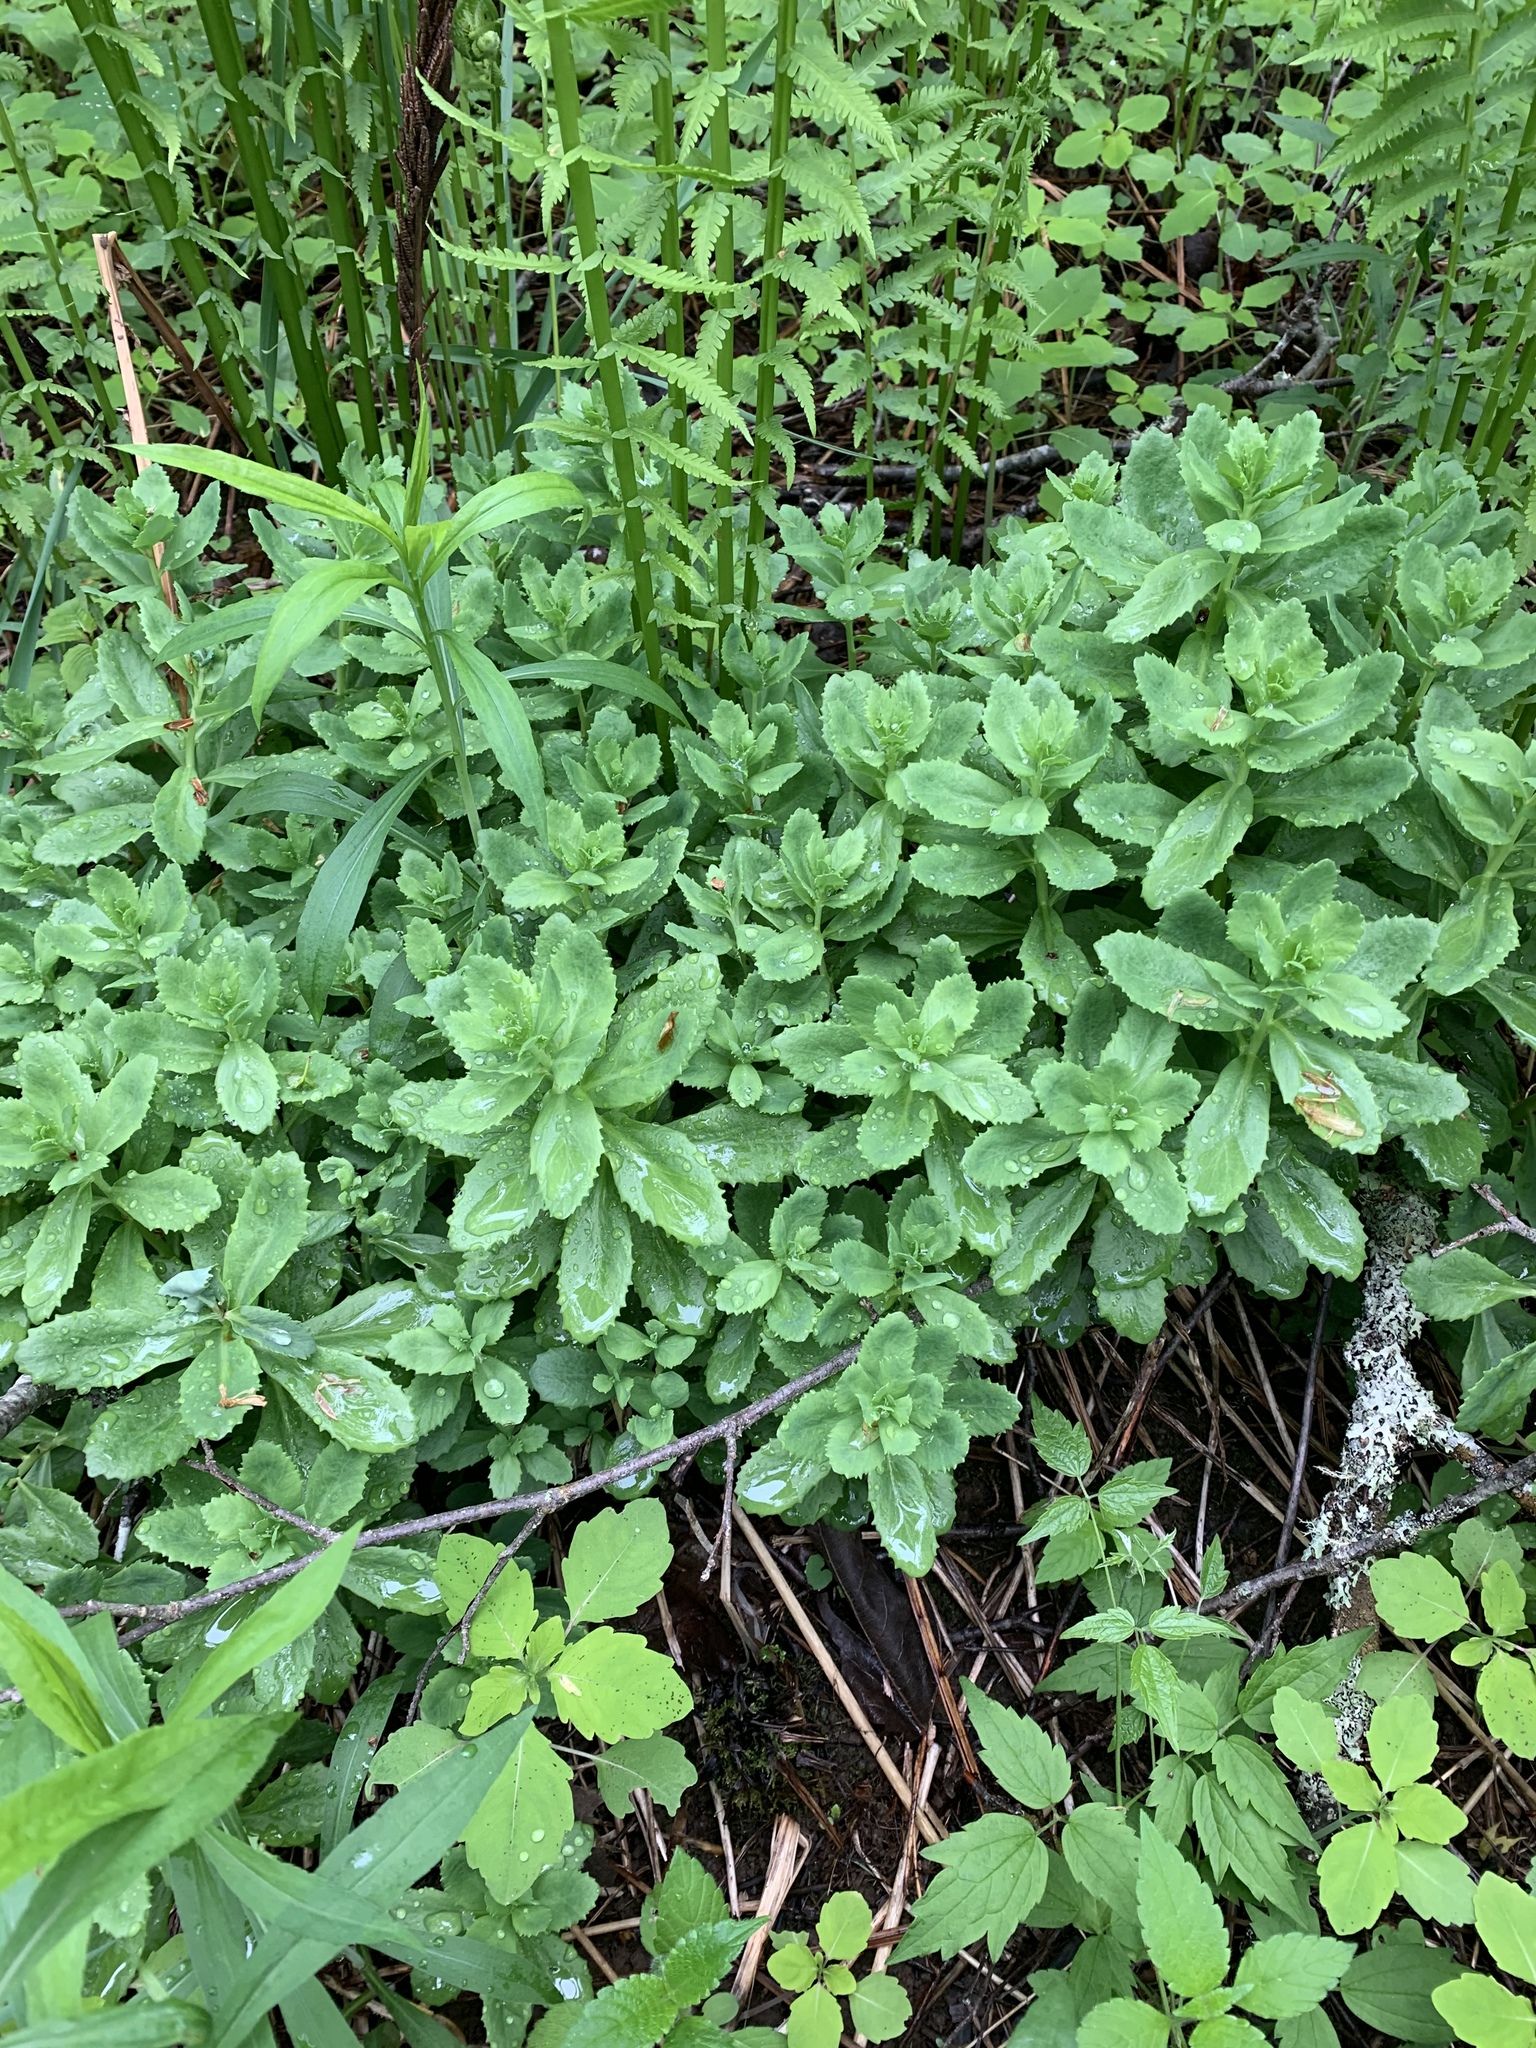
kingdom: Plantae
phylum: Tracheophyta
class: Magnoliopsida
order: Saxifragales
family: Crassulaceae
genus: Hylotelephium
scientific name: Hylotelephium telephium
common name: Live-forever
